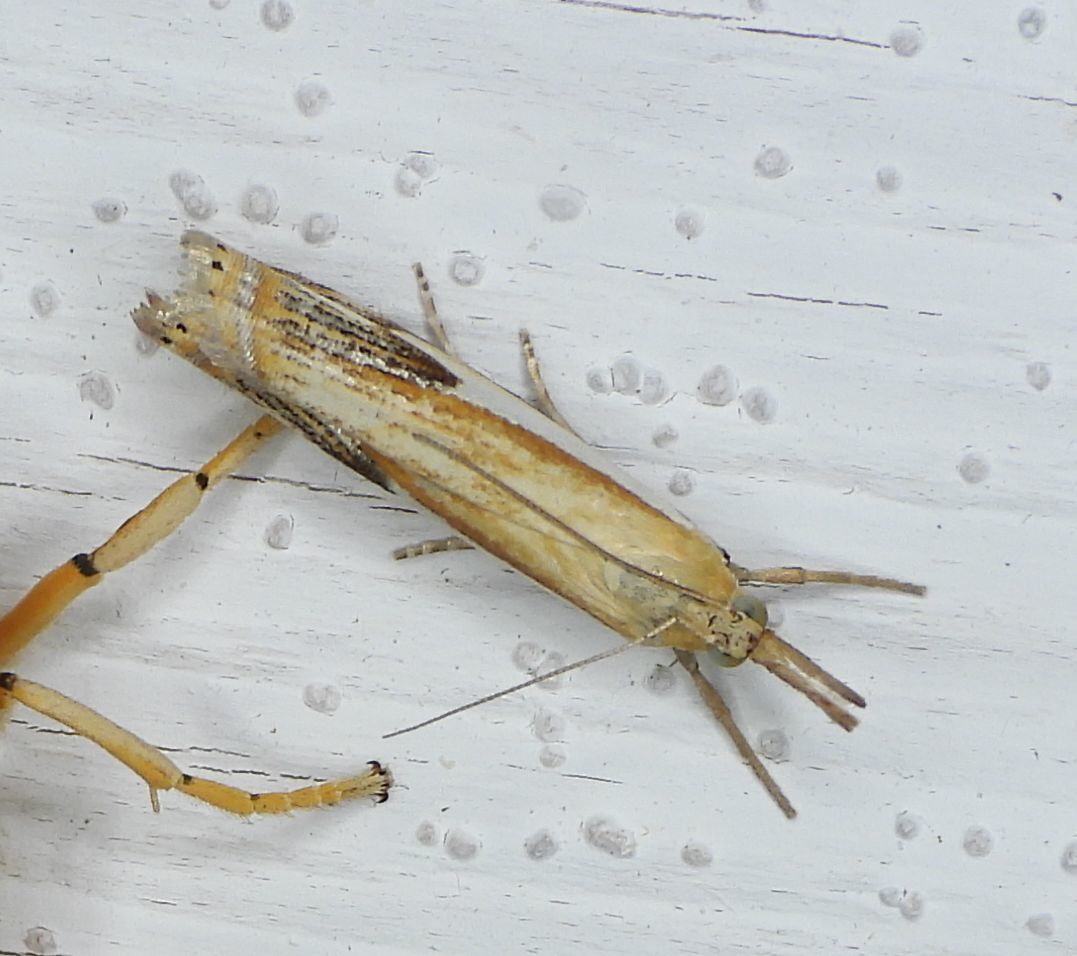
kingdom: Animalia
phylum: Arthropoda
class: Insecta
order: Lepidoptera
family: Crambidae
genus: Crambus
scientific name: Crambus agitatellus
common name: Double-banded grass-veneer
